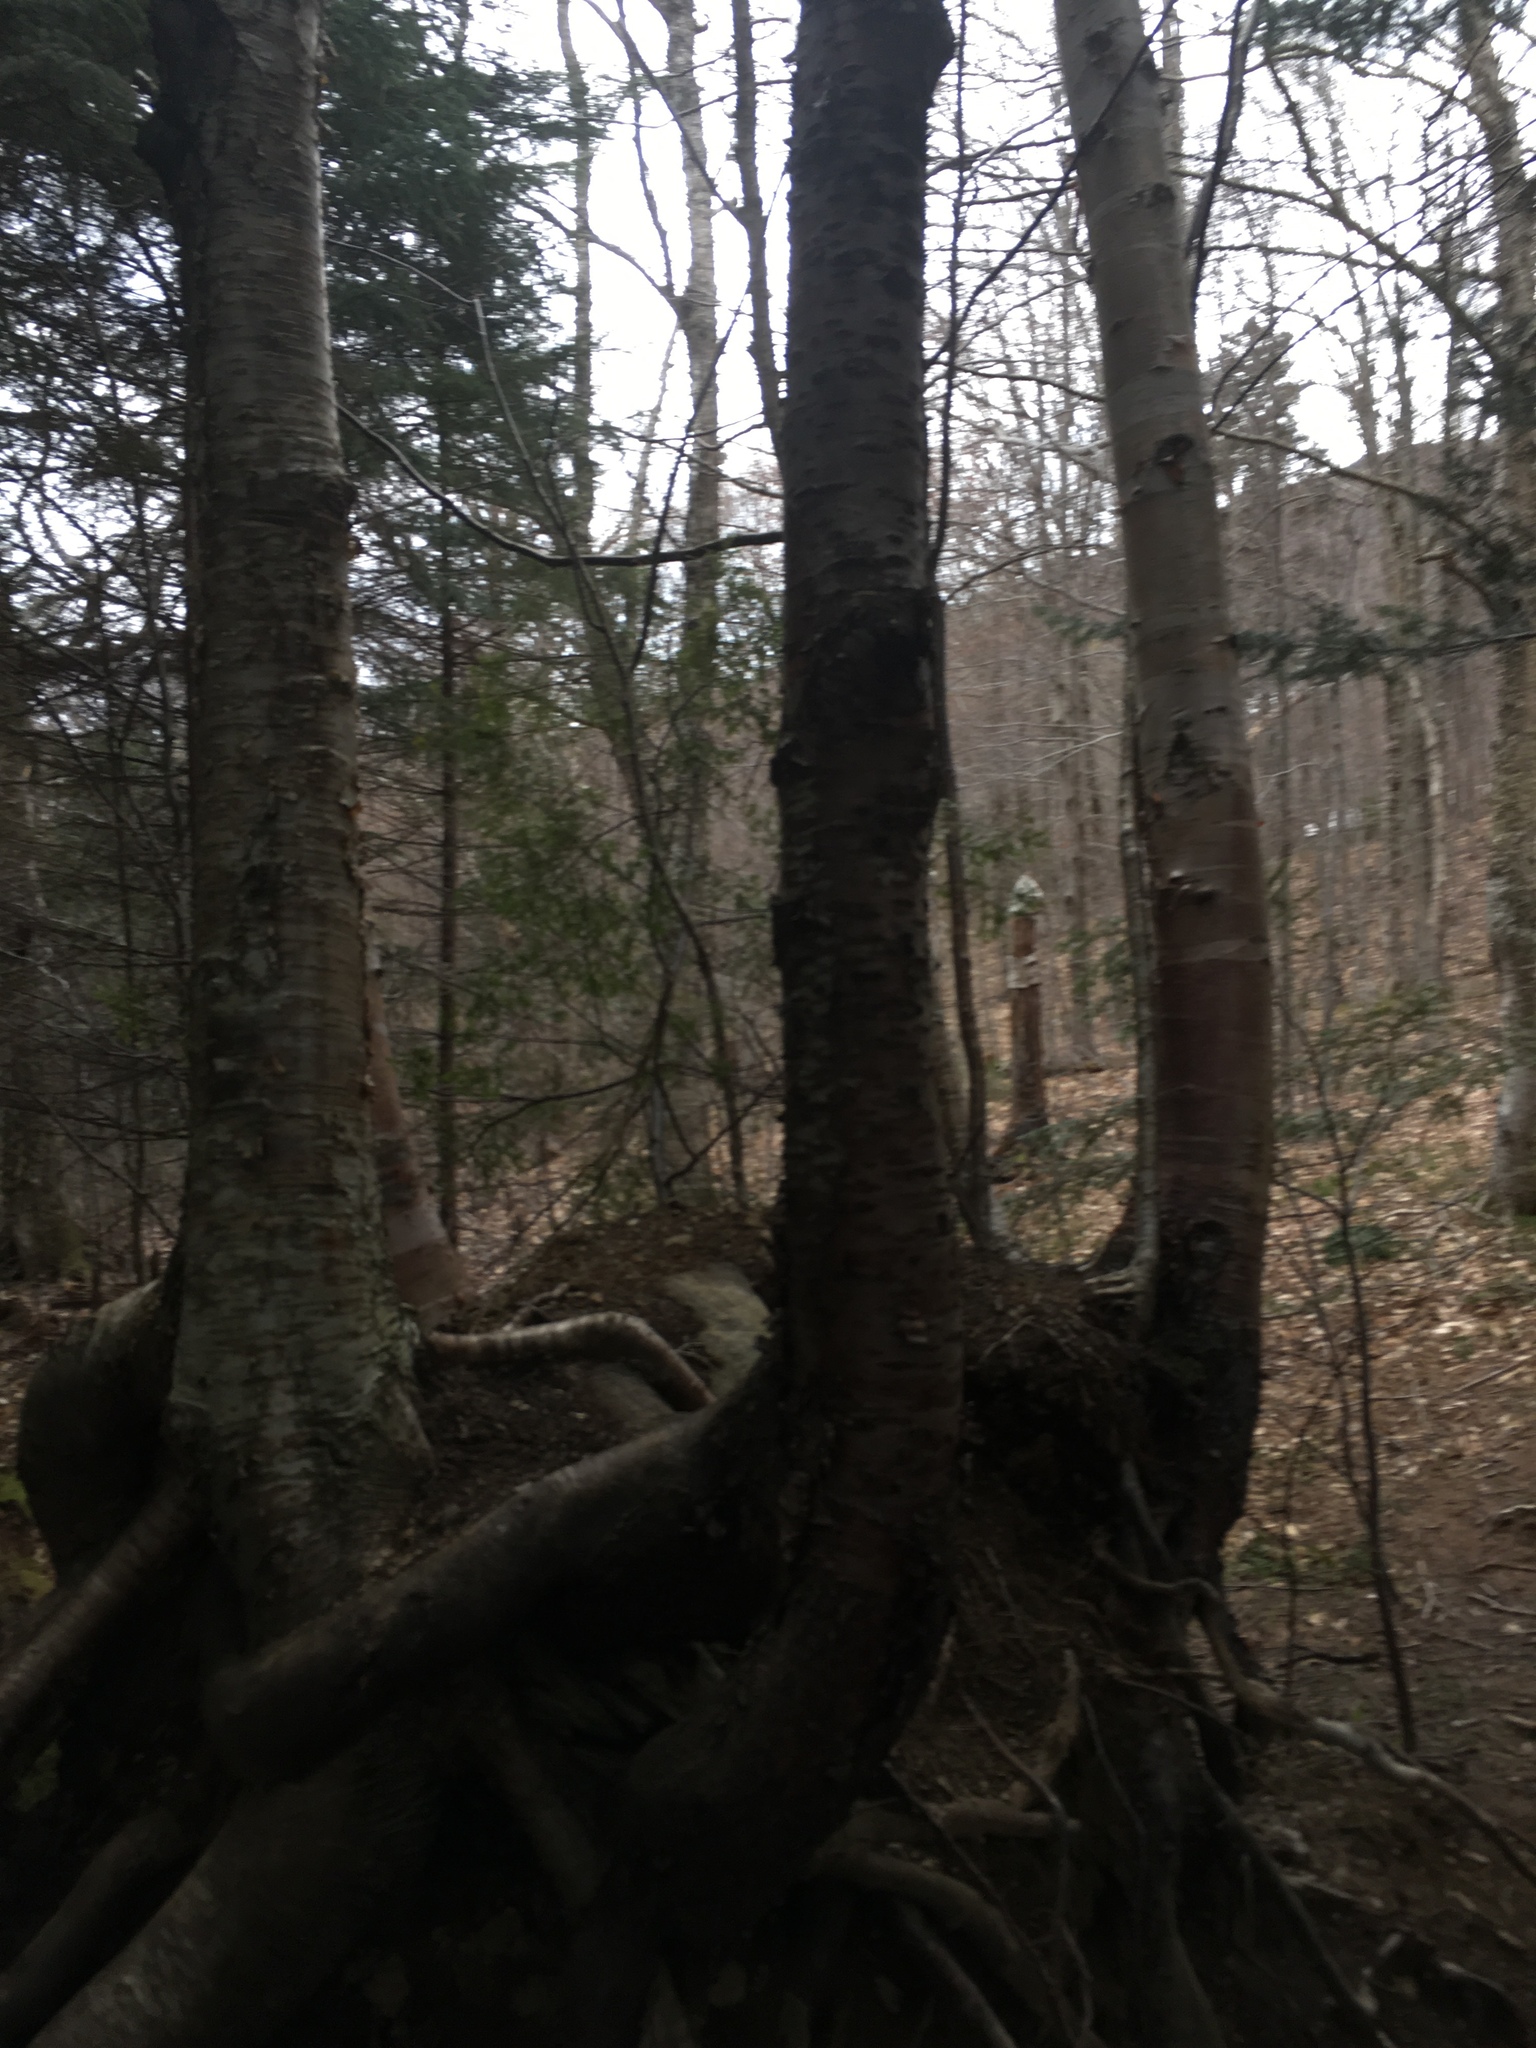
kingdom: Plantae
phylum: Tracheophyta
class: Magnoliopsida
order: Fagales
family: Betulaceae
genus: Betula
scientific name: Betula alleghaniensis
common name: Yellow birch
